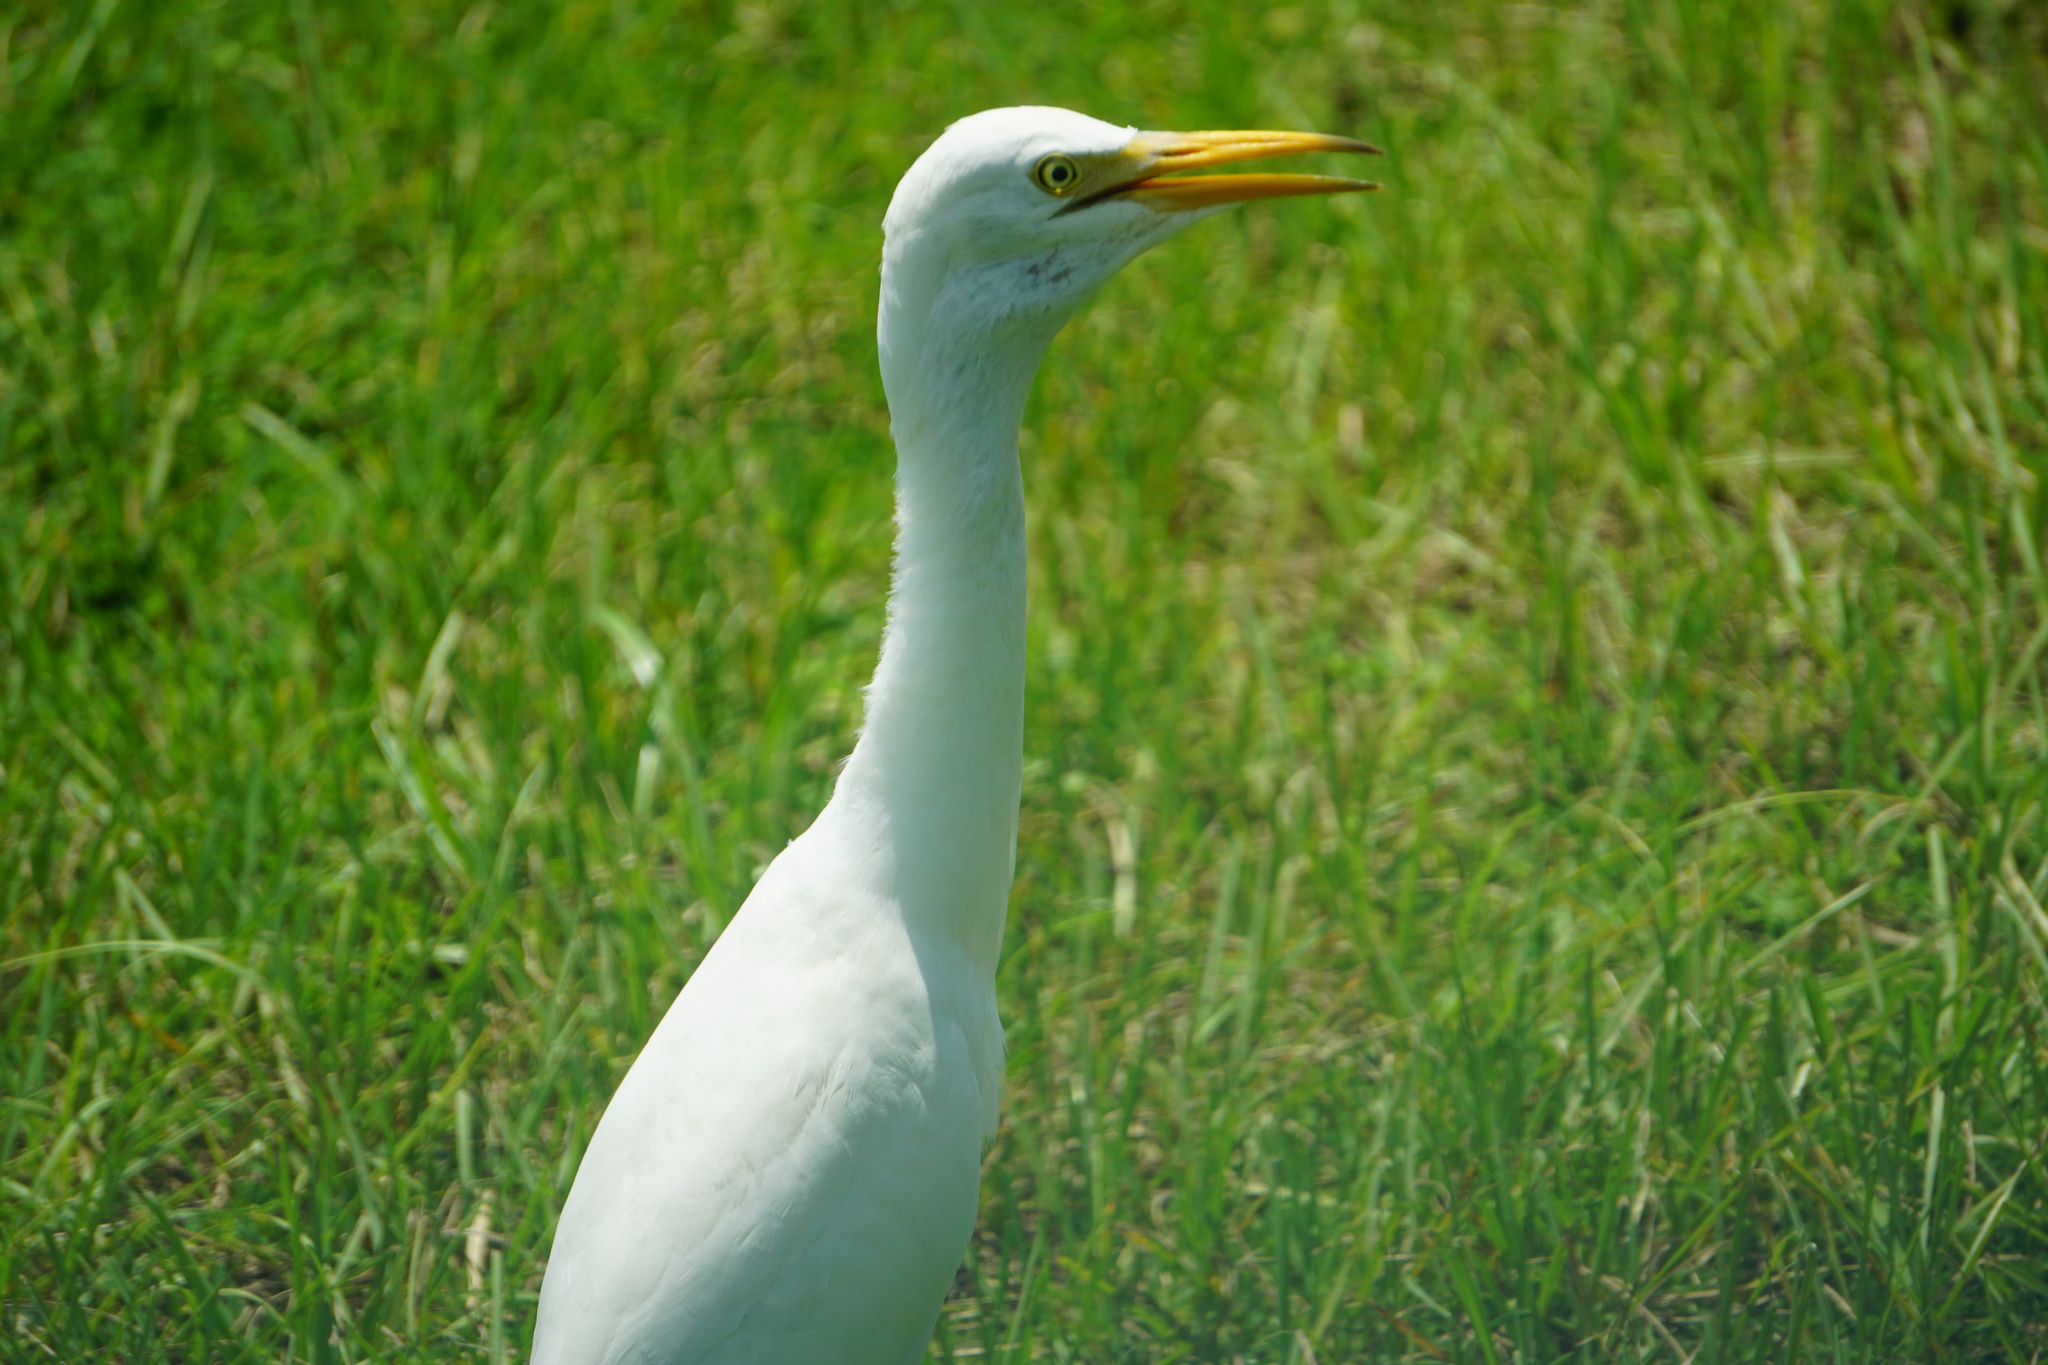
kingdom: Animalia
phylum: Chordata
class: Aves
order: Pelecaniformes
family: Ardeidae
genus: Bubulcus
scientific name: Bubulcus ibis
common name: Cattle egret
